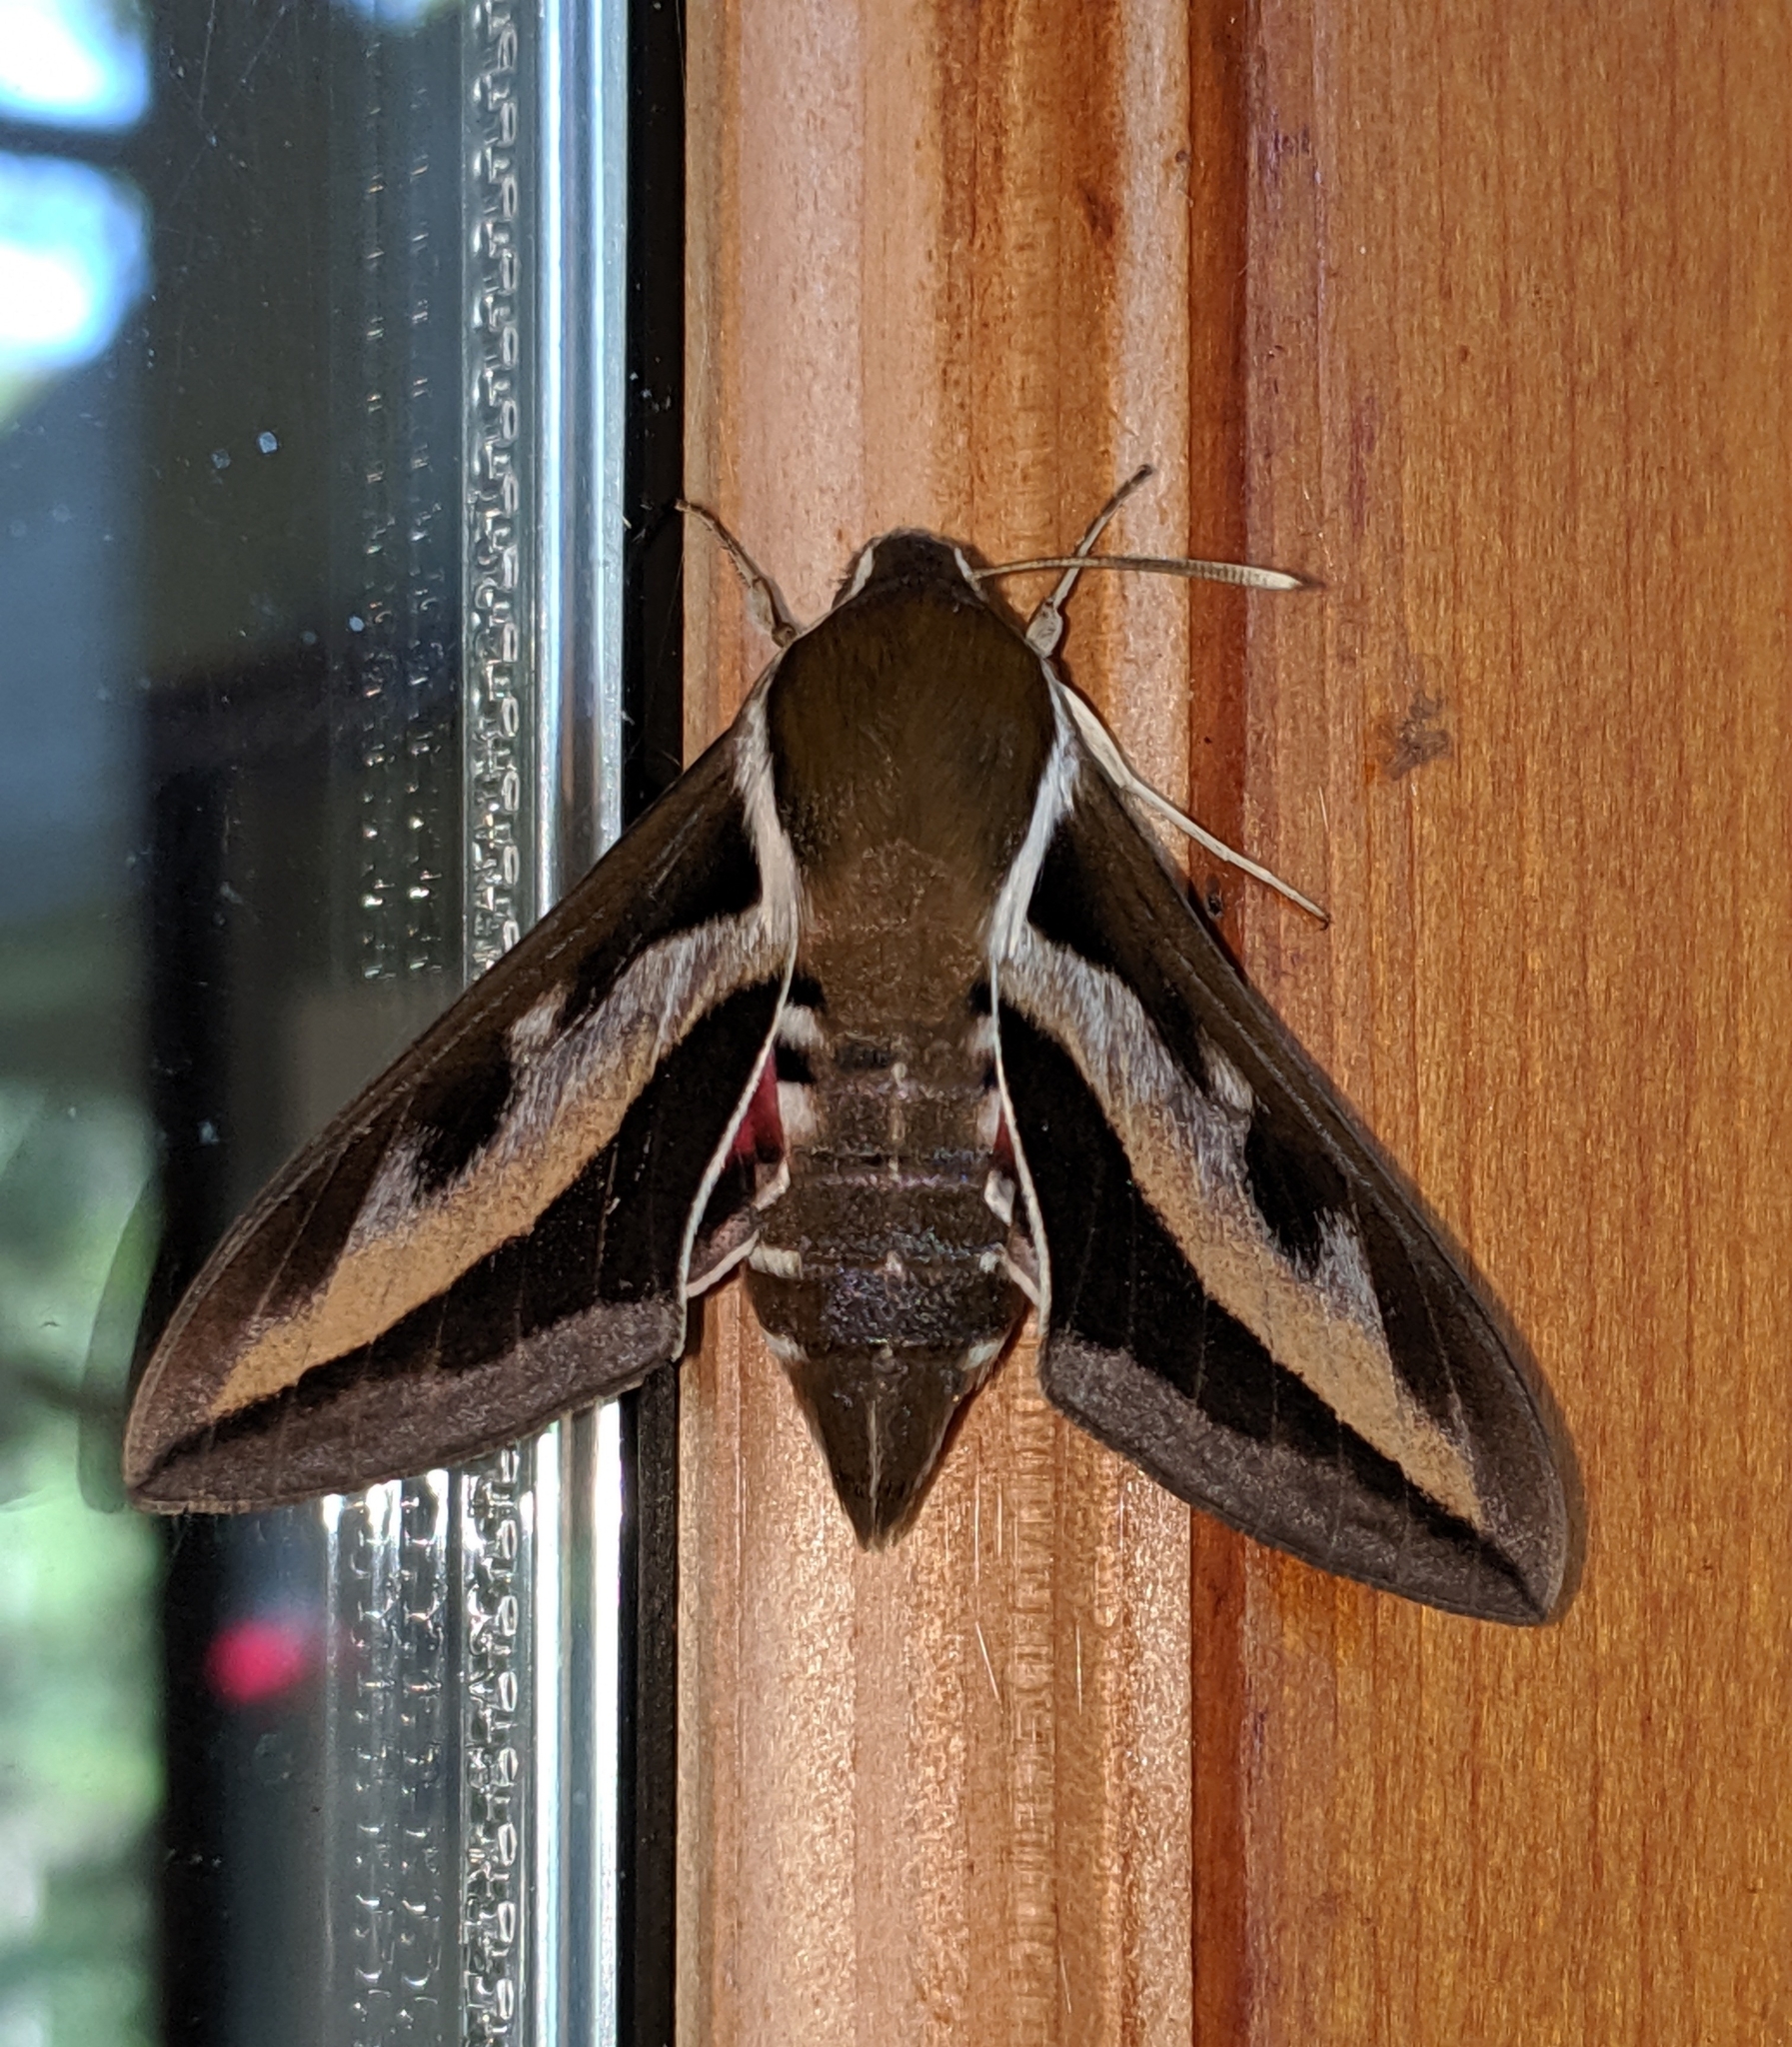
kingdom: Animalia
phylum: Arthropoda
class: Insecta
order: Lepidoptera
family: Sphingidae
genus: Hyles
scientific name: Hyles gallii
